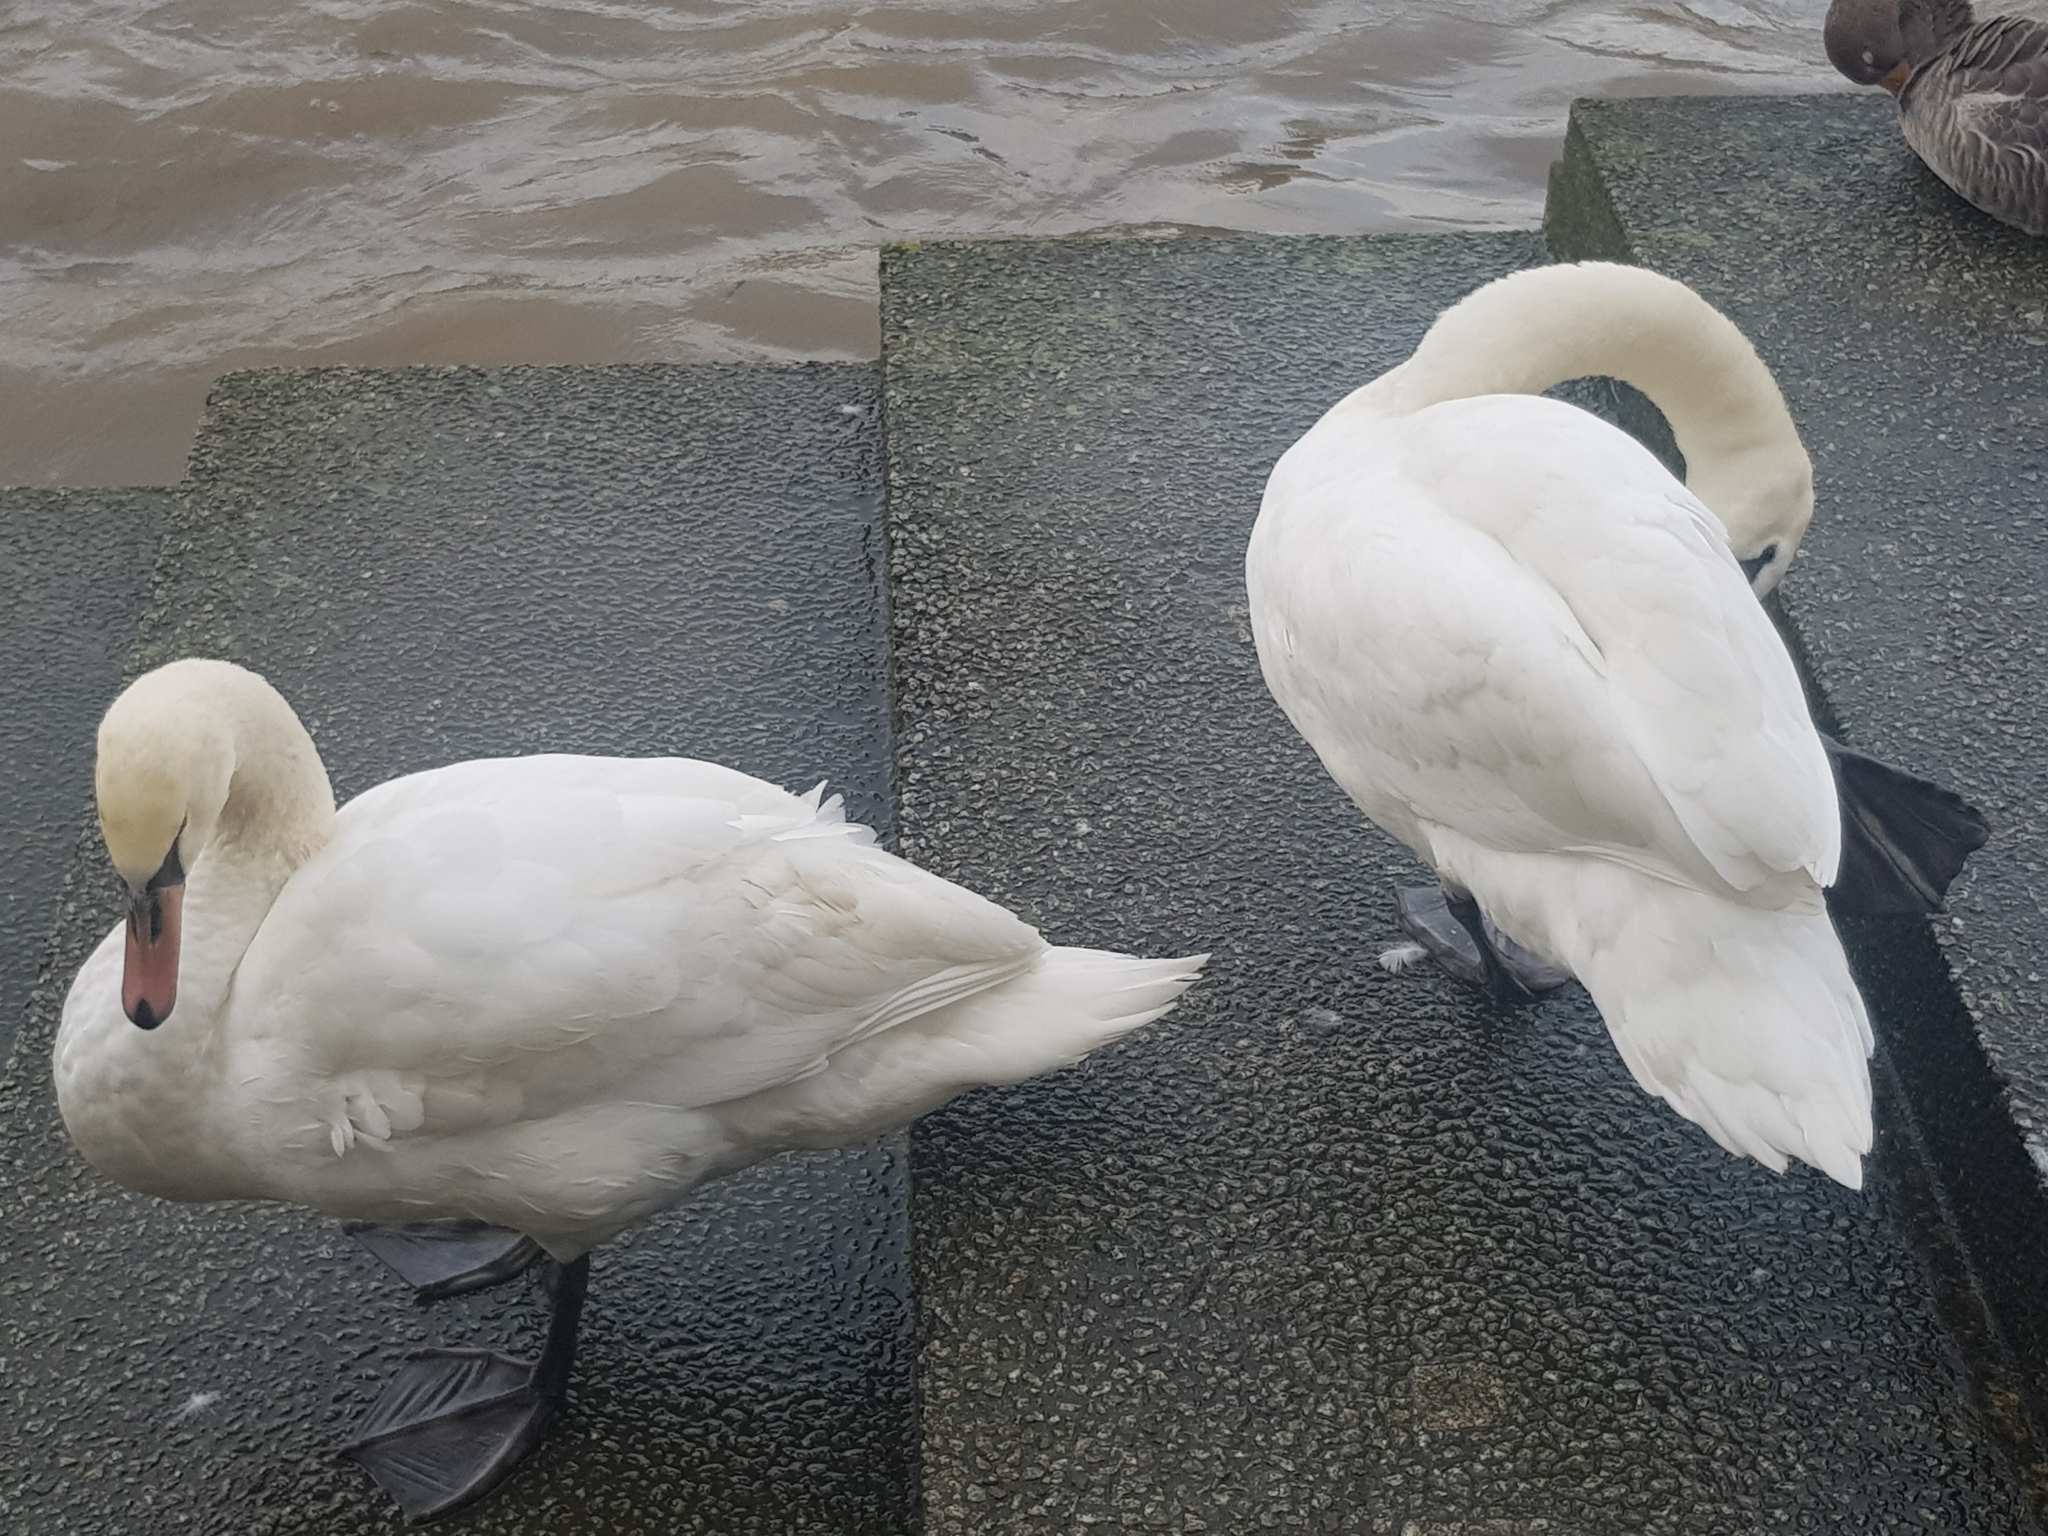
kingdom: Animalia
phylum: Chordata
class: Aves
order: Anseriformes
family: Anatidae
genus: Cygnus
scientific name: Cygnus olor
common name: Mute swan
